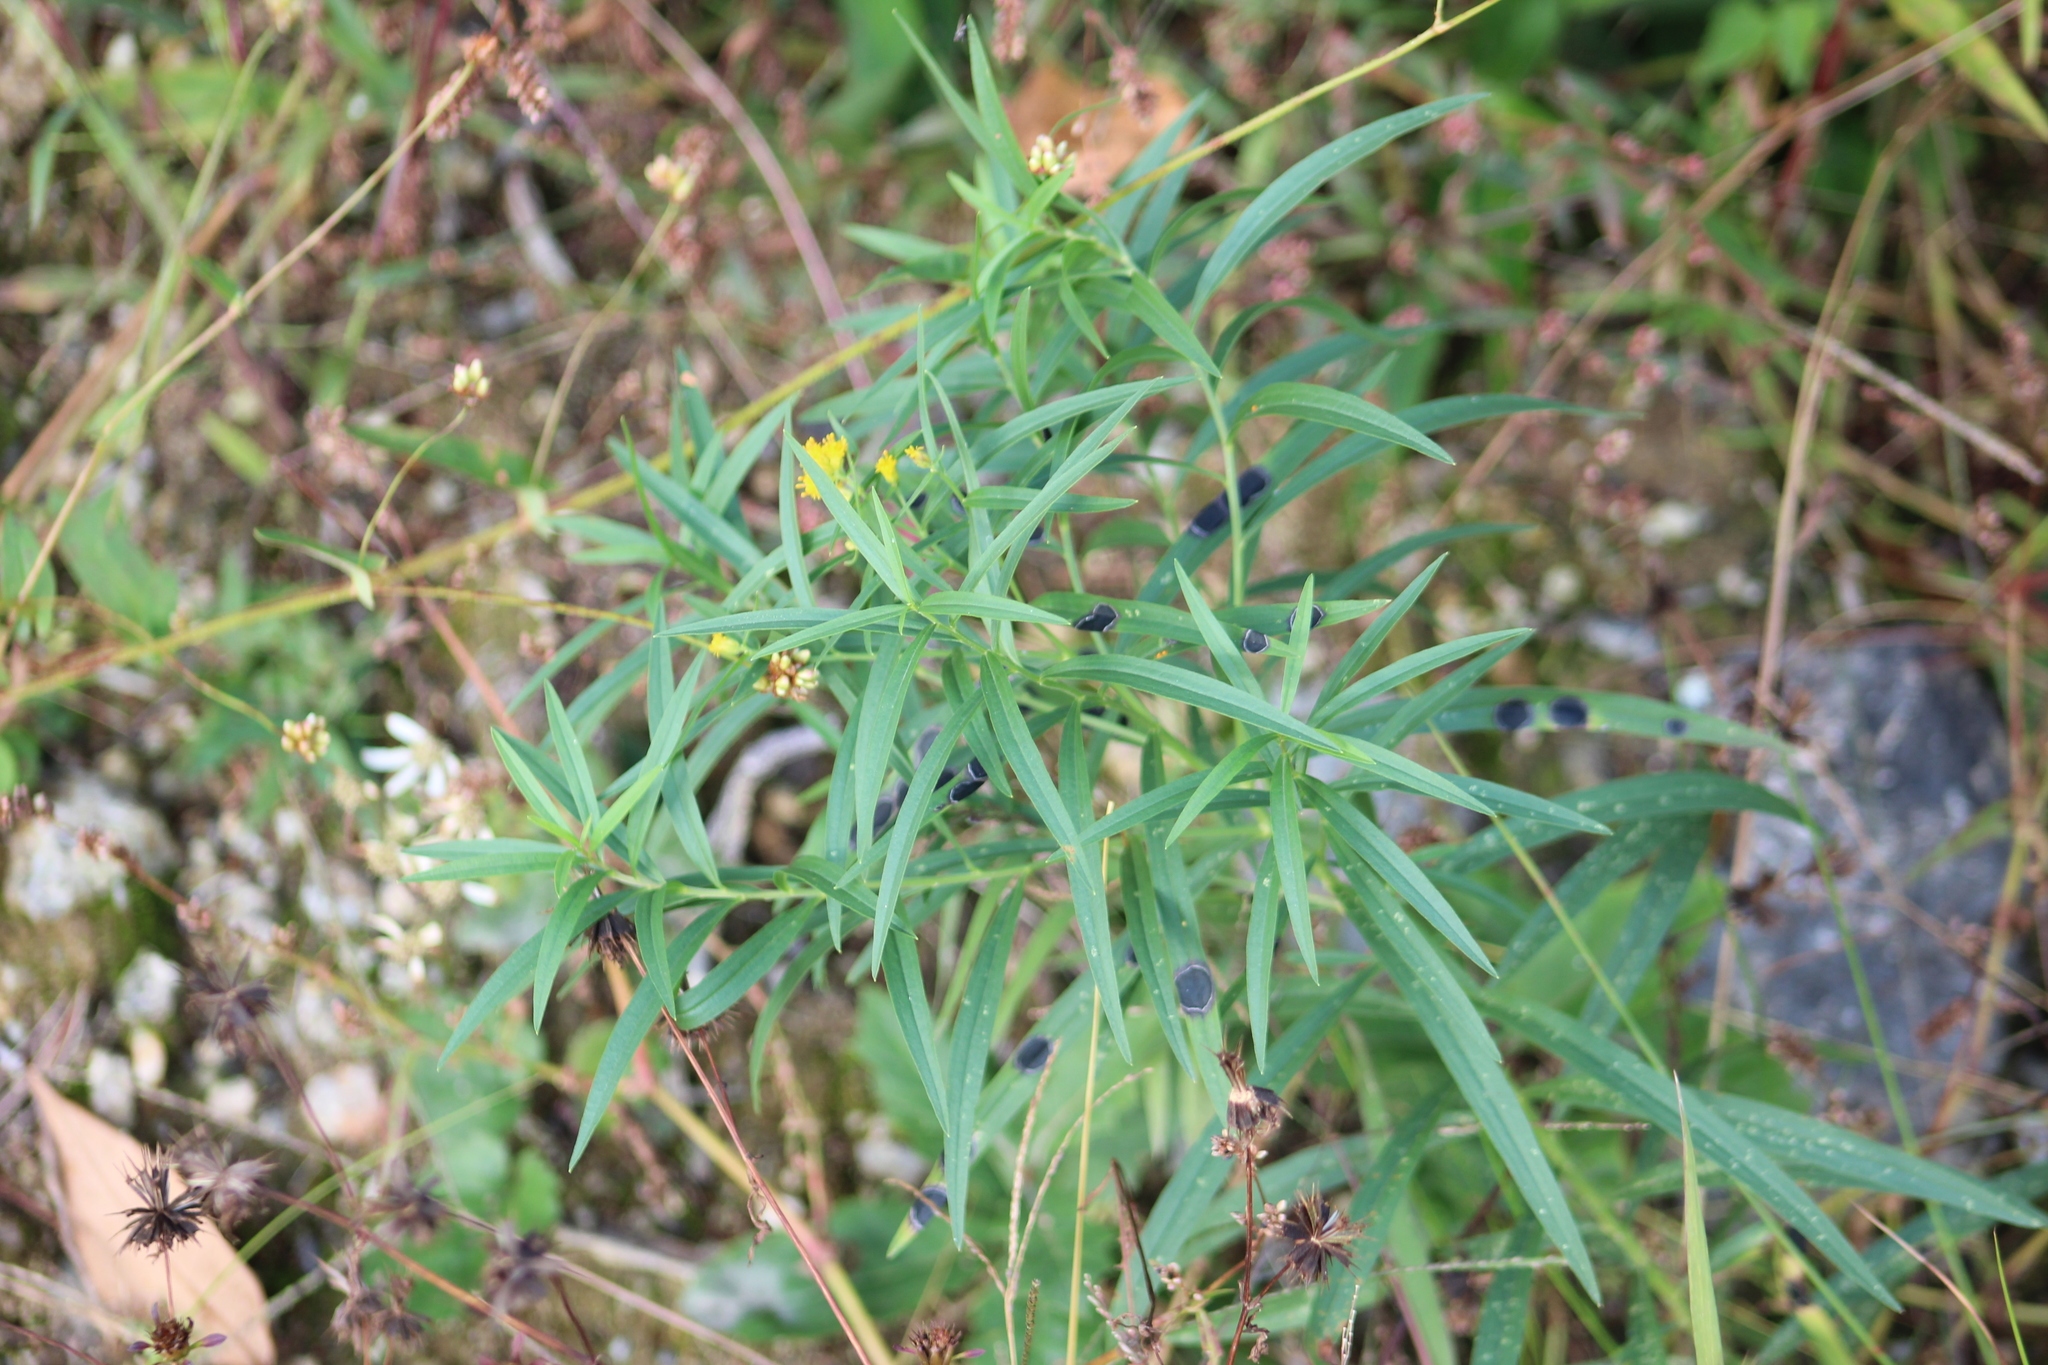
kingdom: Plantae
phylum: Tracheophyta
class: Magnoliopsida
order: Asterales
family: Asteraceae
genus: Euthamia
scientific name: Euthamia graminifolia
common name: Common goldentop
